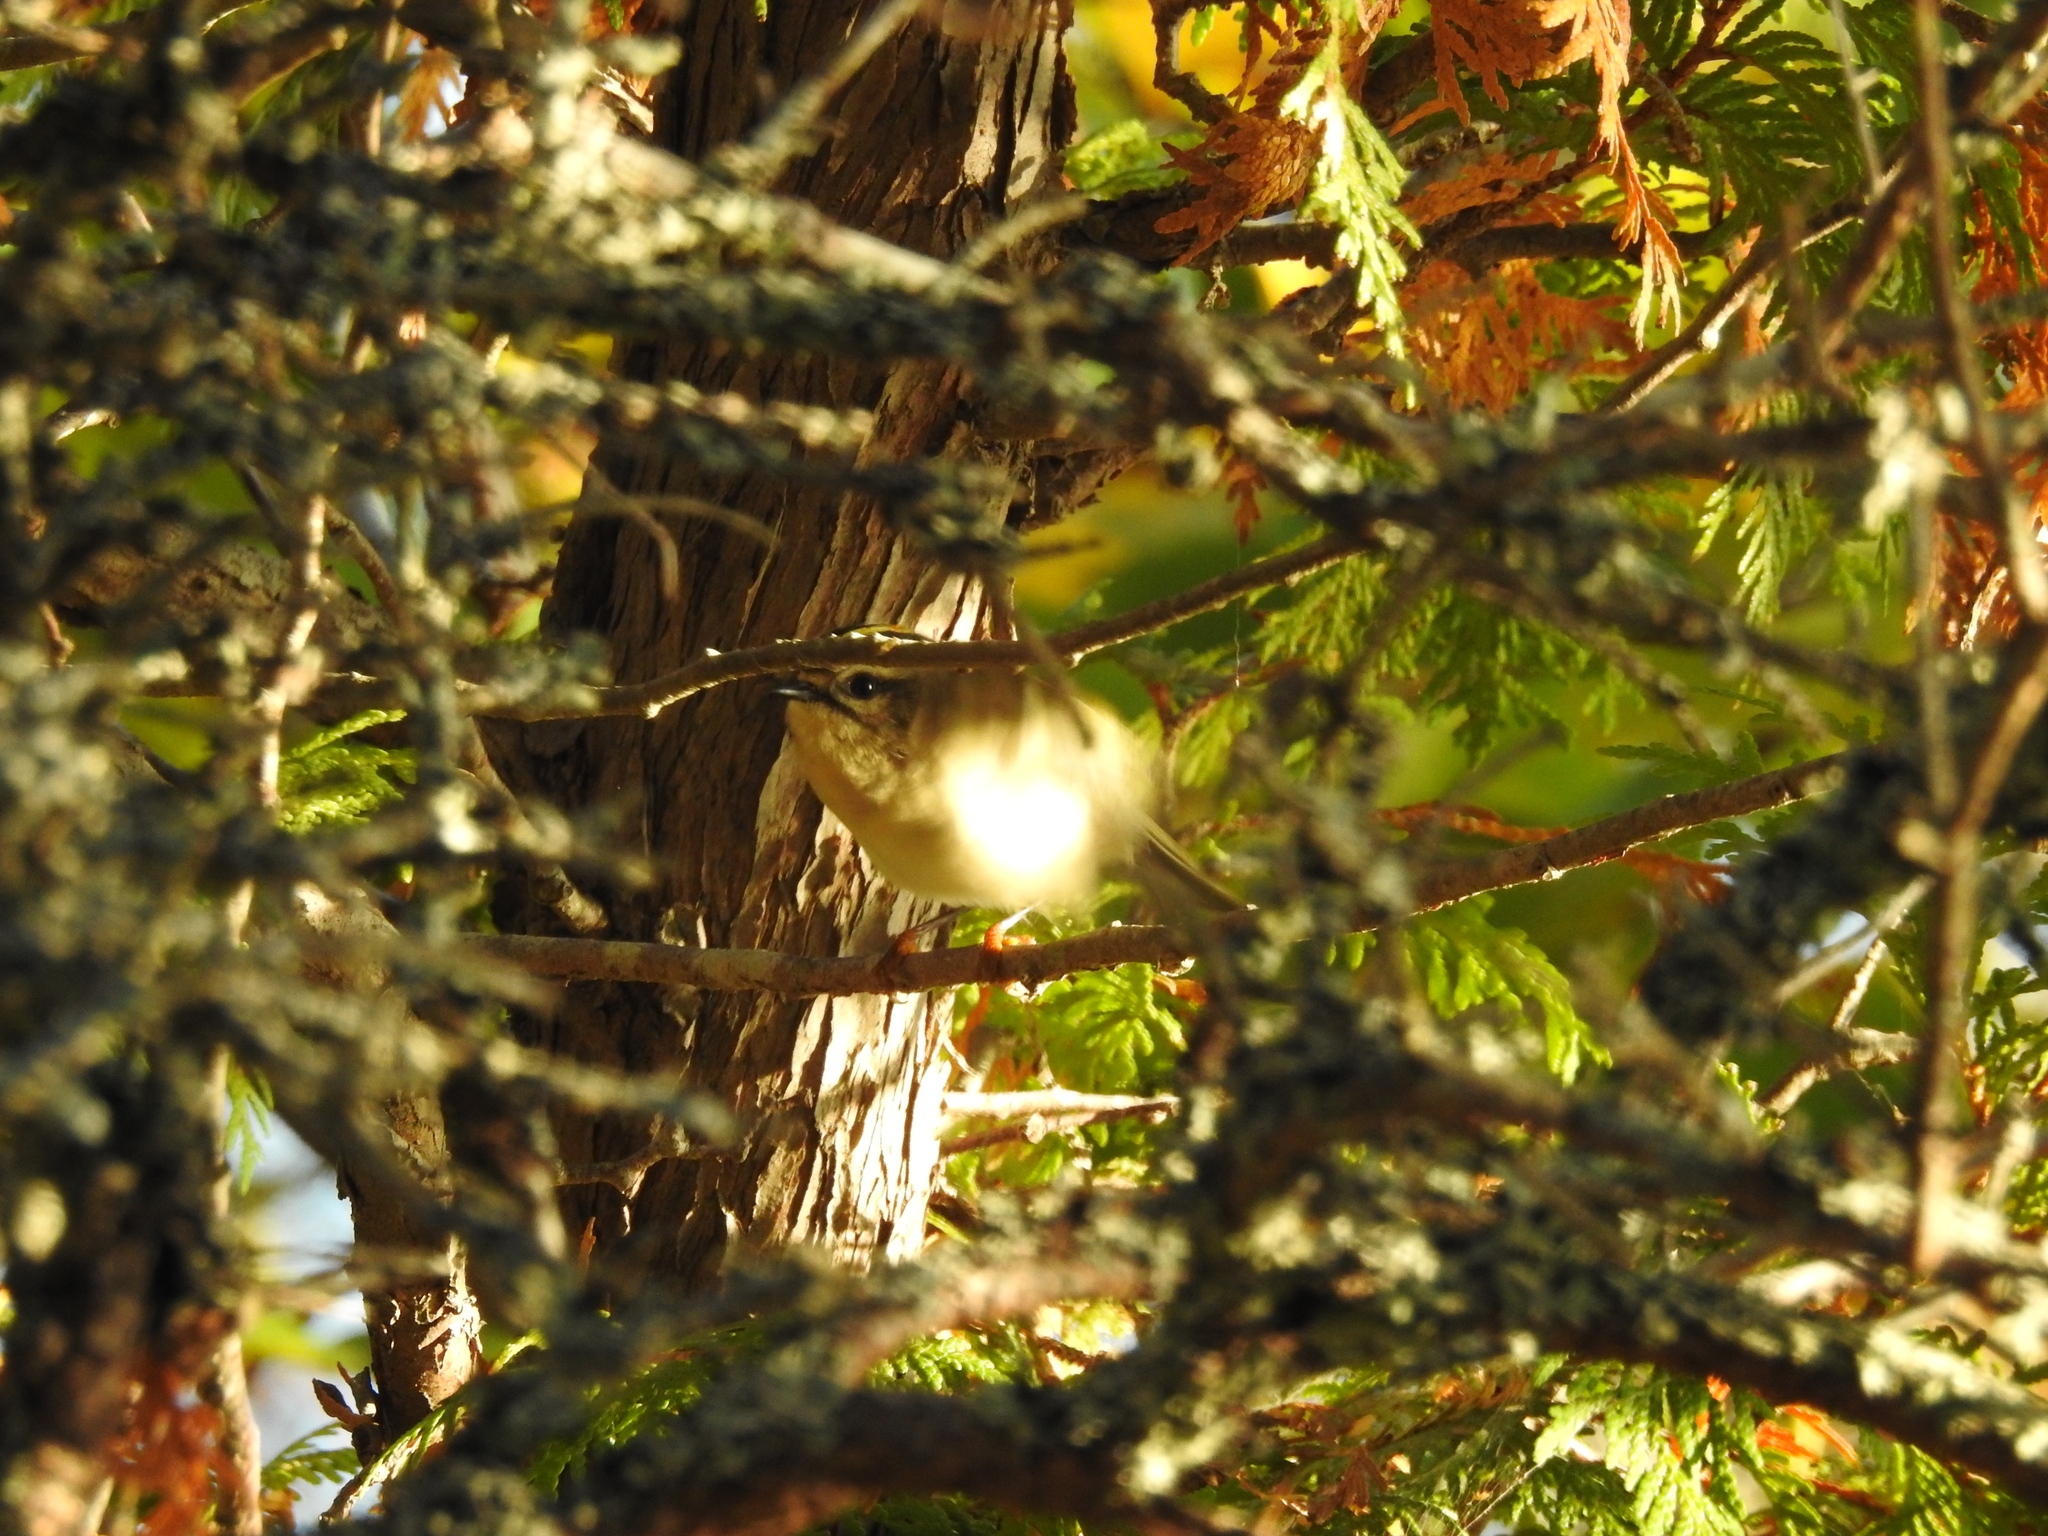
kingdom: Animalia
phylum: Chordata
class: Aves
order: Passeriformes
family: Regulidae
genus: Regulus
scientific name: Regulus satrapa
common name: Golden-crowned kinglet
